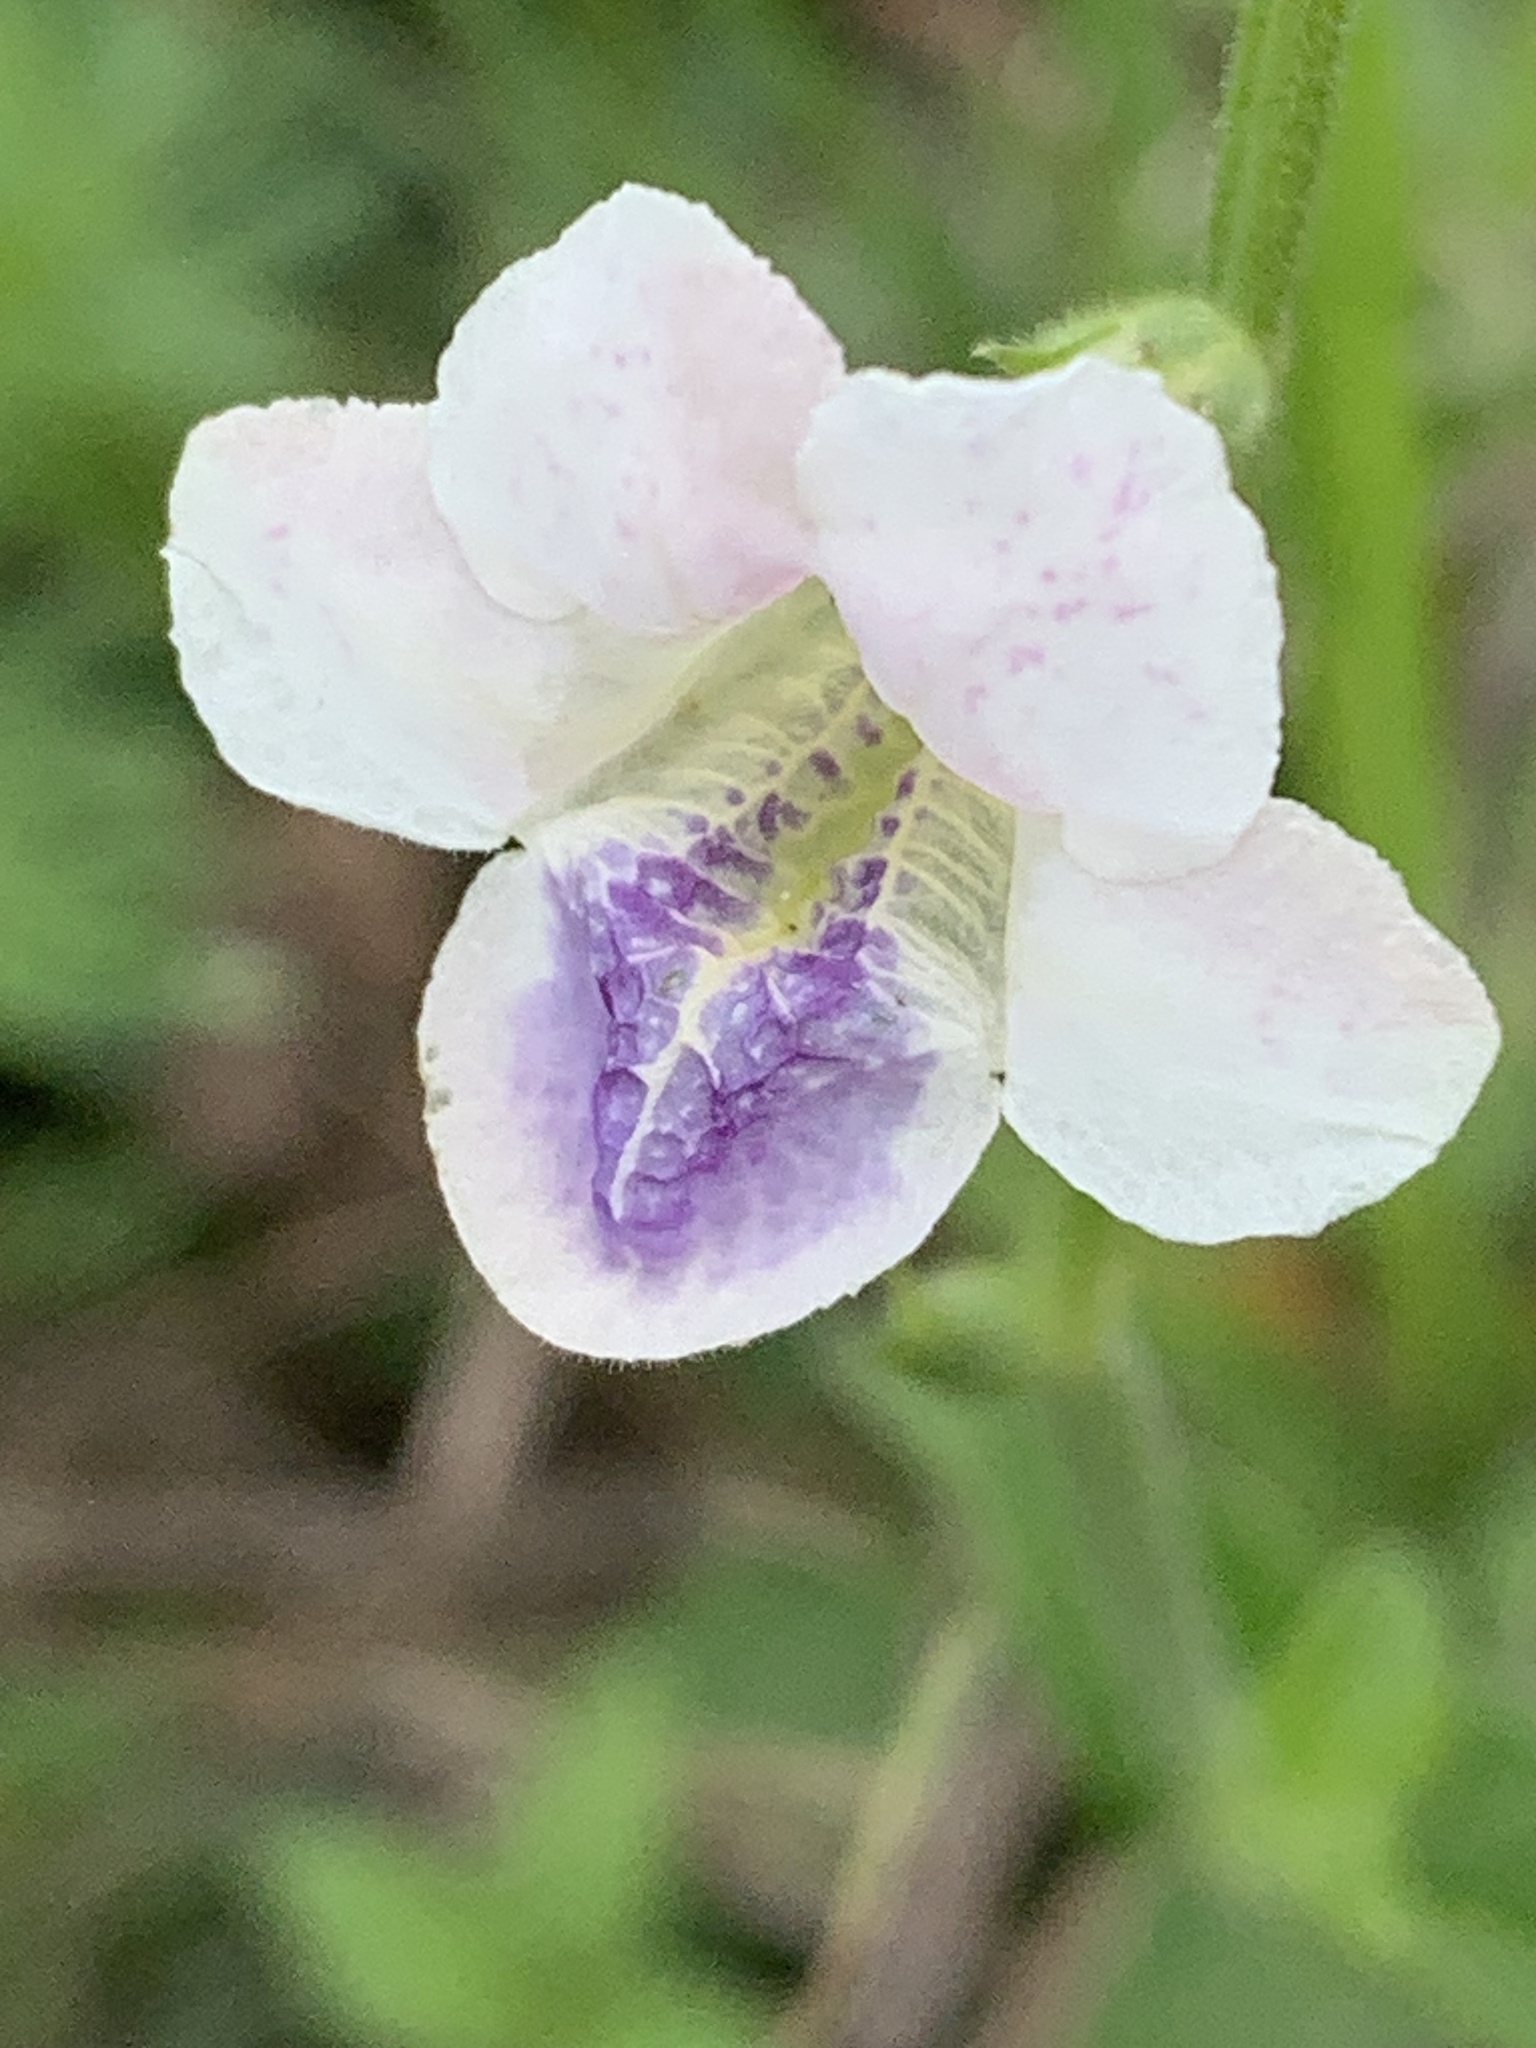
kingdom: Plantae
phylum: Tracheophyta
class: Magnoliopsida
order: Lamiales
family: Acanthaceae
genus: Asystasia
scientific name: Asystasia intrusa
